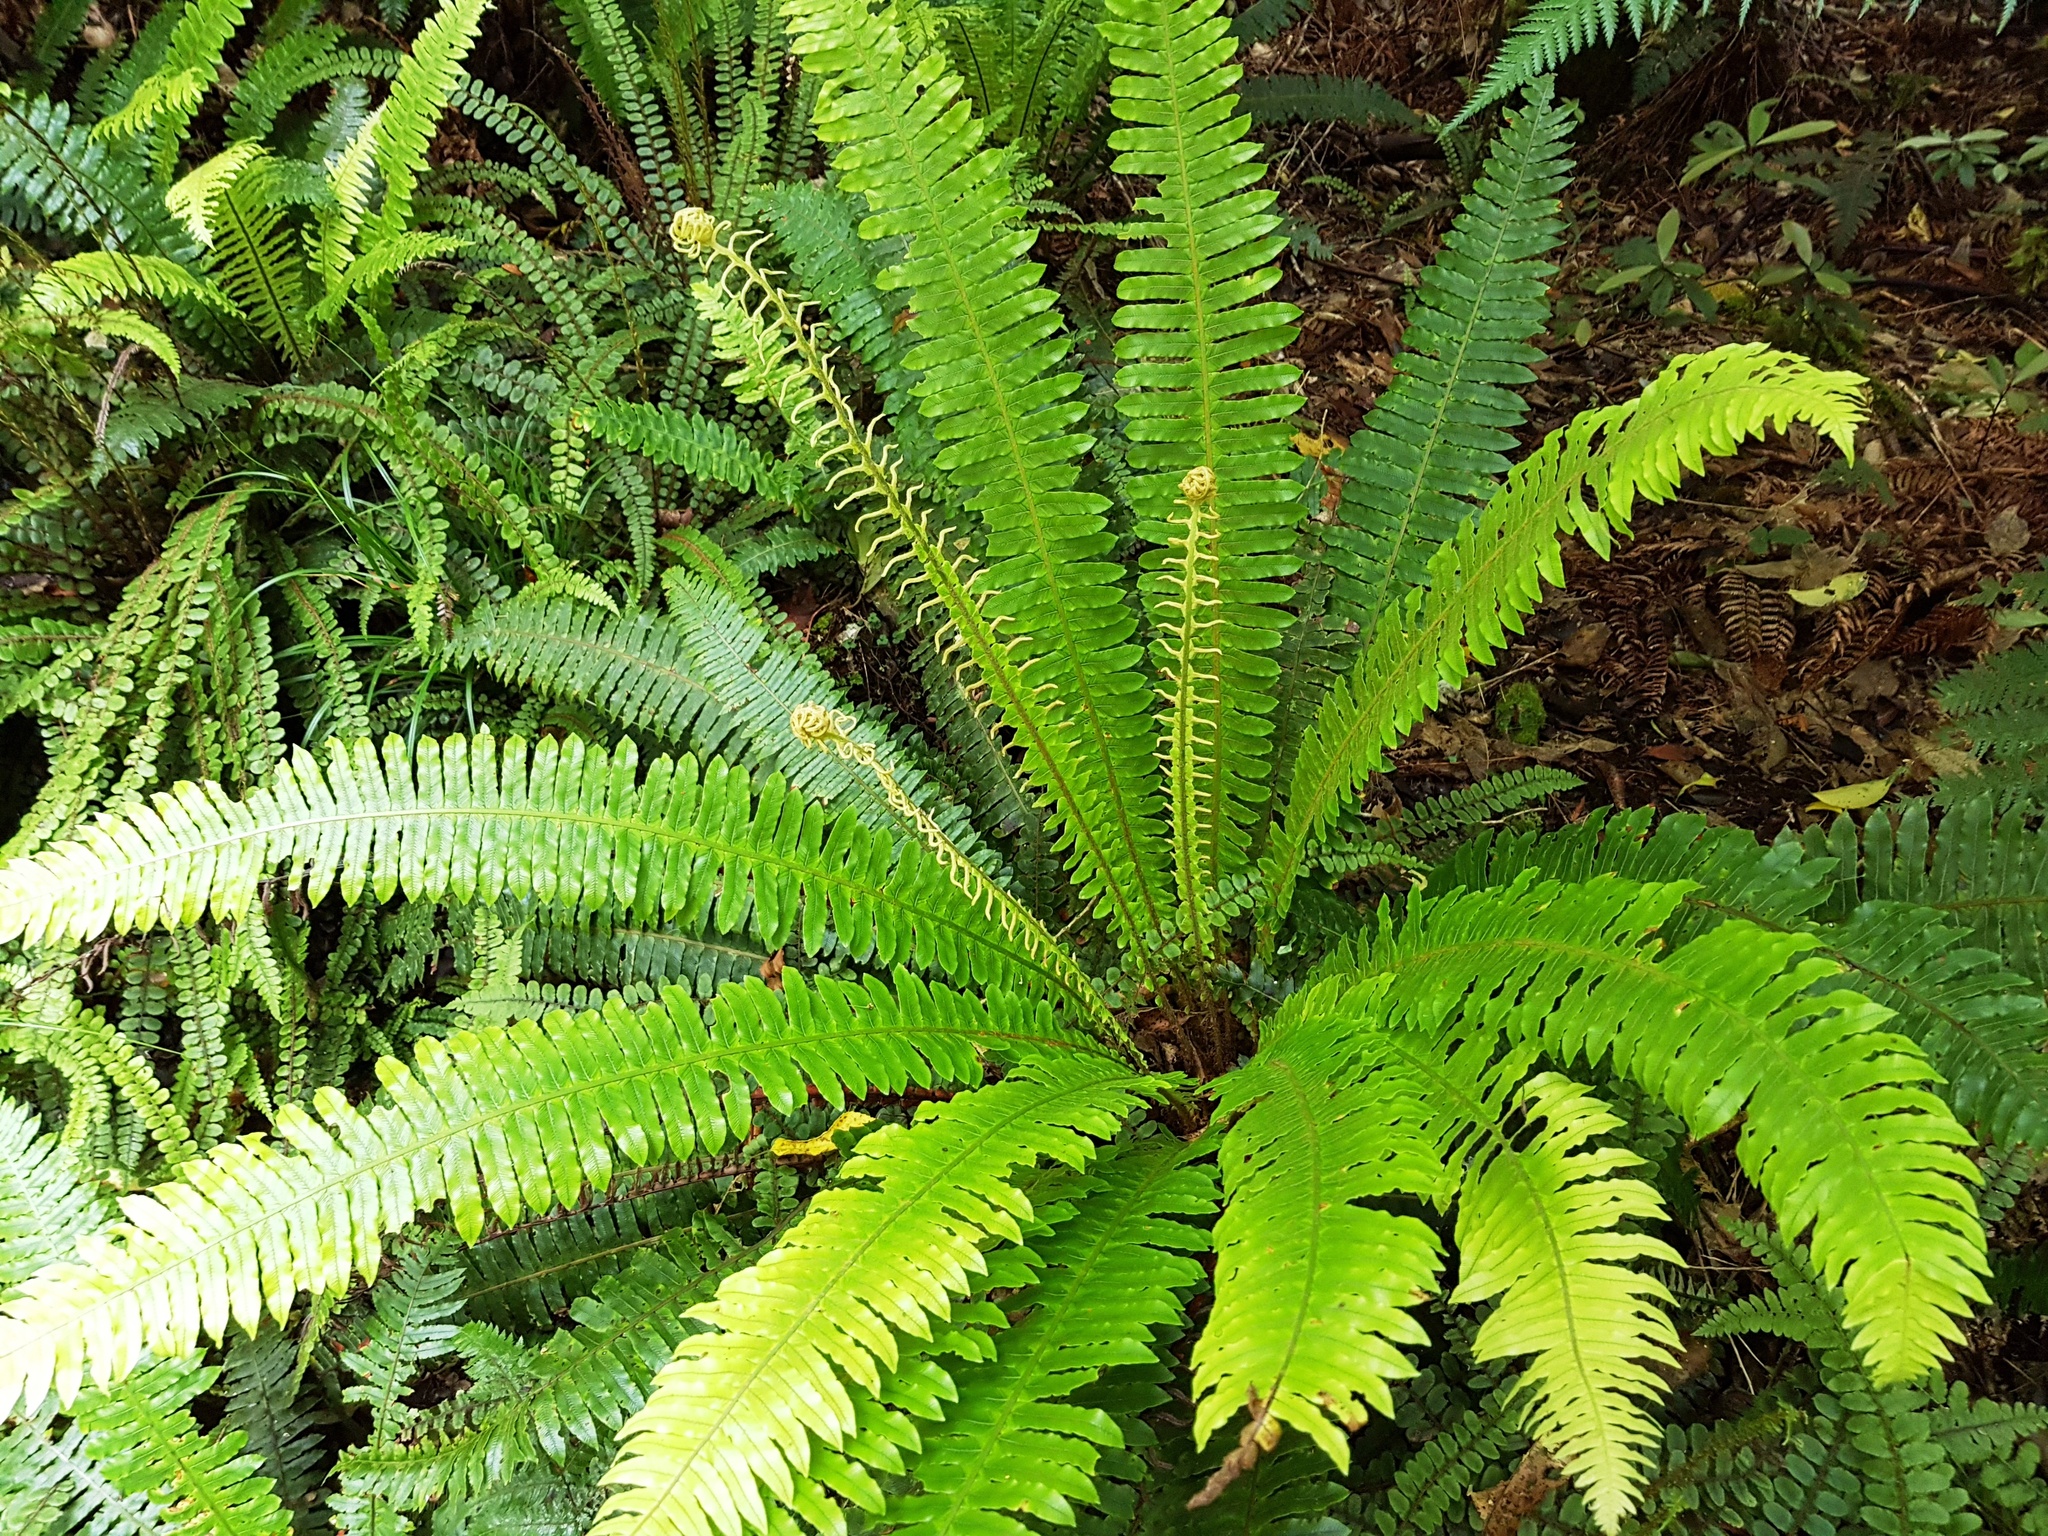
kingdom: Plantae
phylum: Tracheophyta
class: Polypodiopsida
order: Polypodiales
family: Blechnaceae
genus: Lomaria
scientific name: Lomaria discolor
